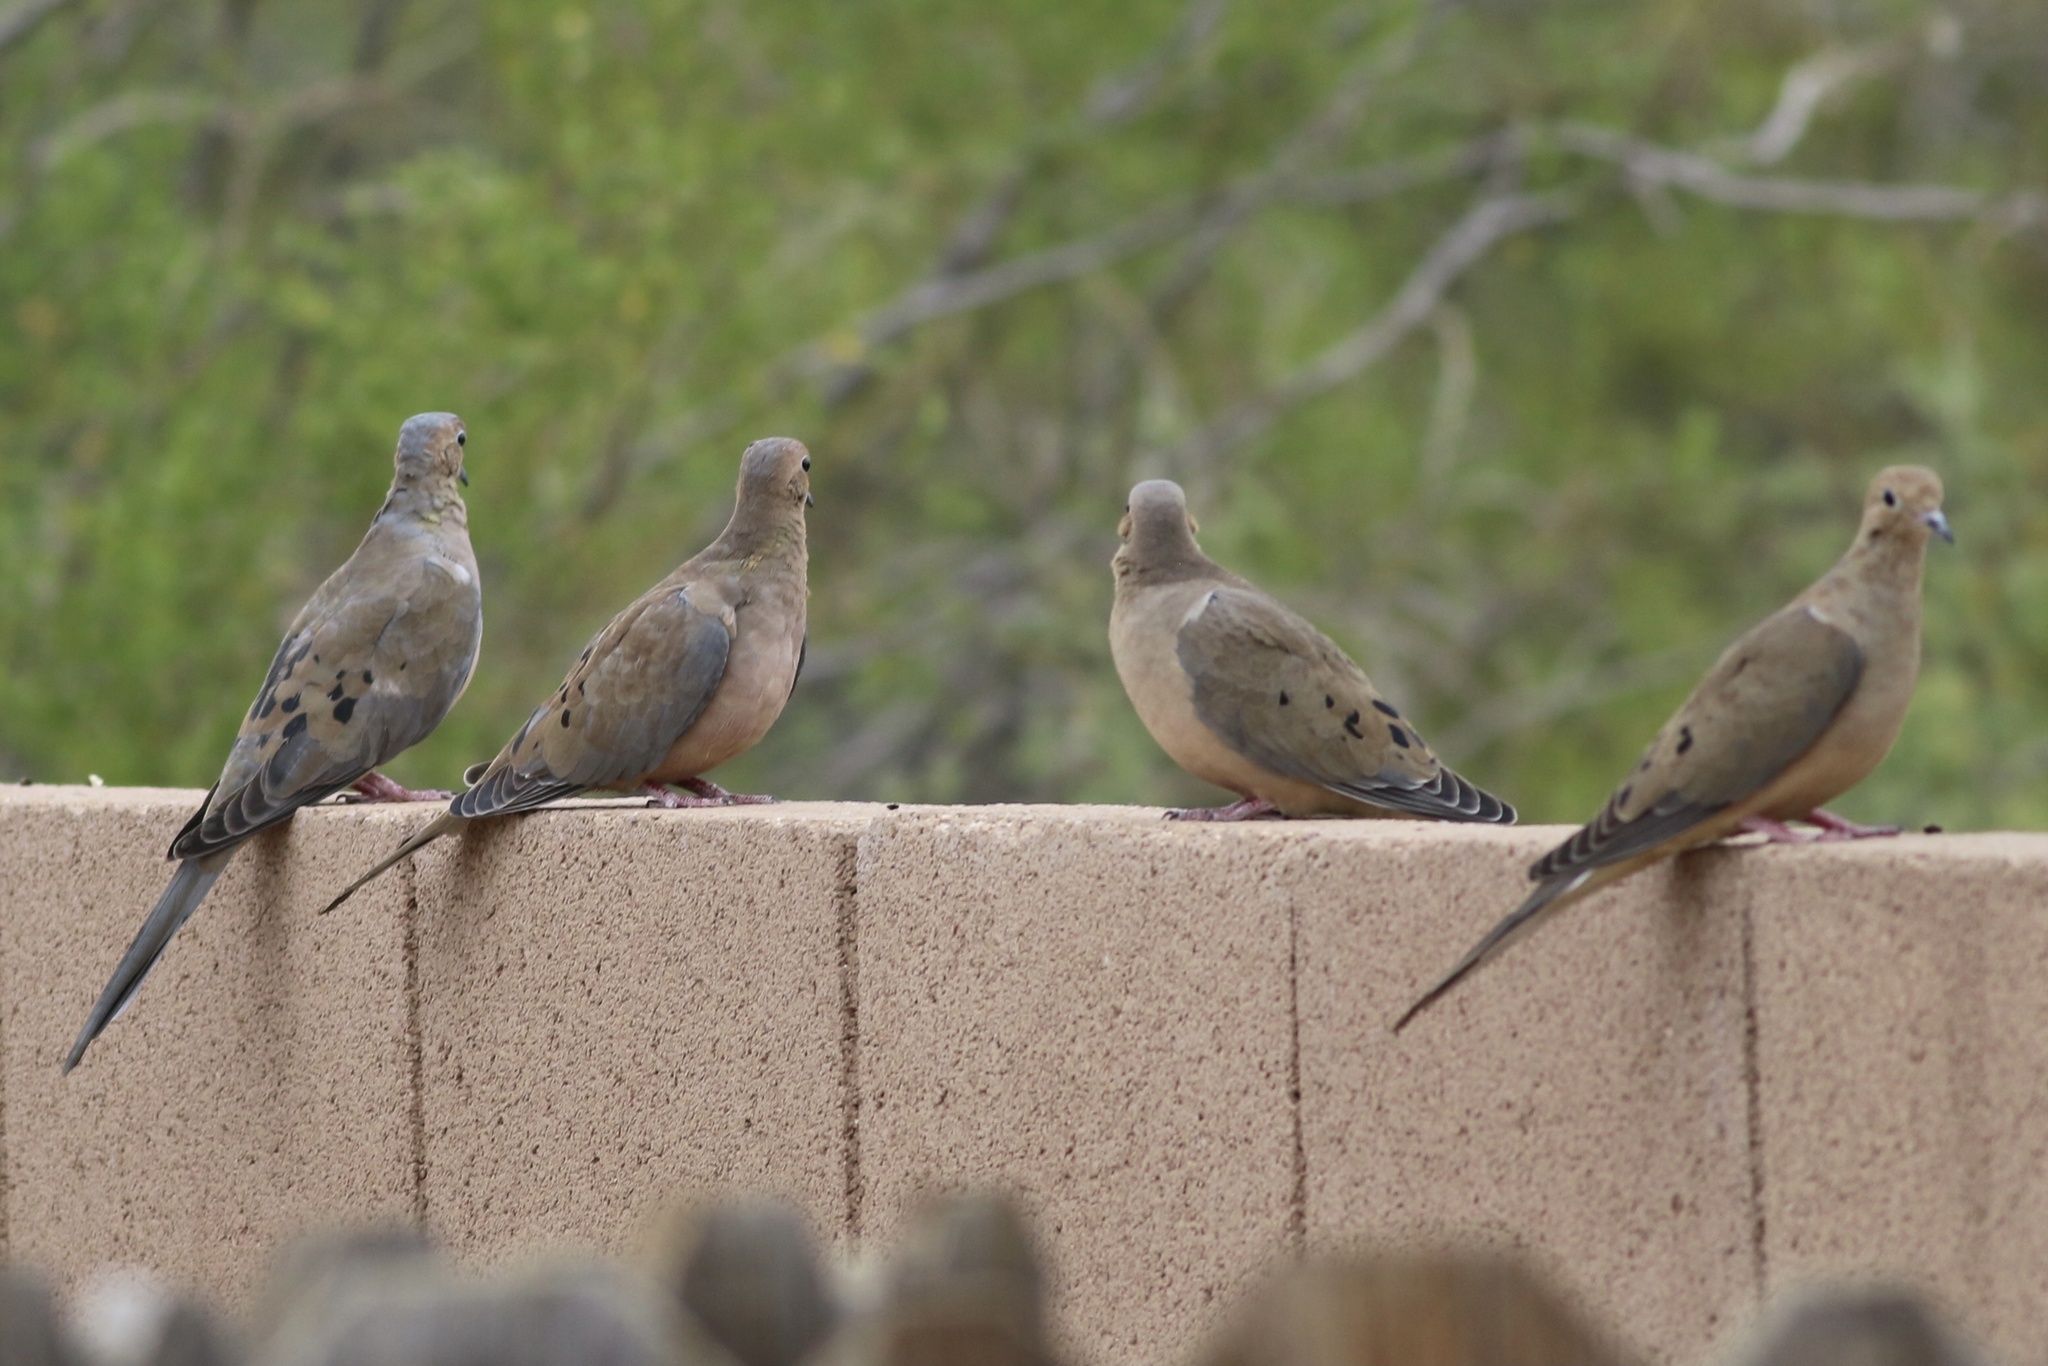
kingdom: Animalia
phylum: Chordata
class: Aves
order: Columbiformes
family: Columbidae
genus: Zenaida
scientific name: Zenaida macroura
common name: Mourning dove
